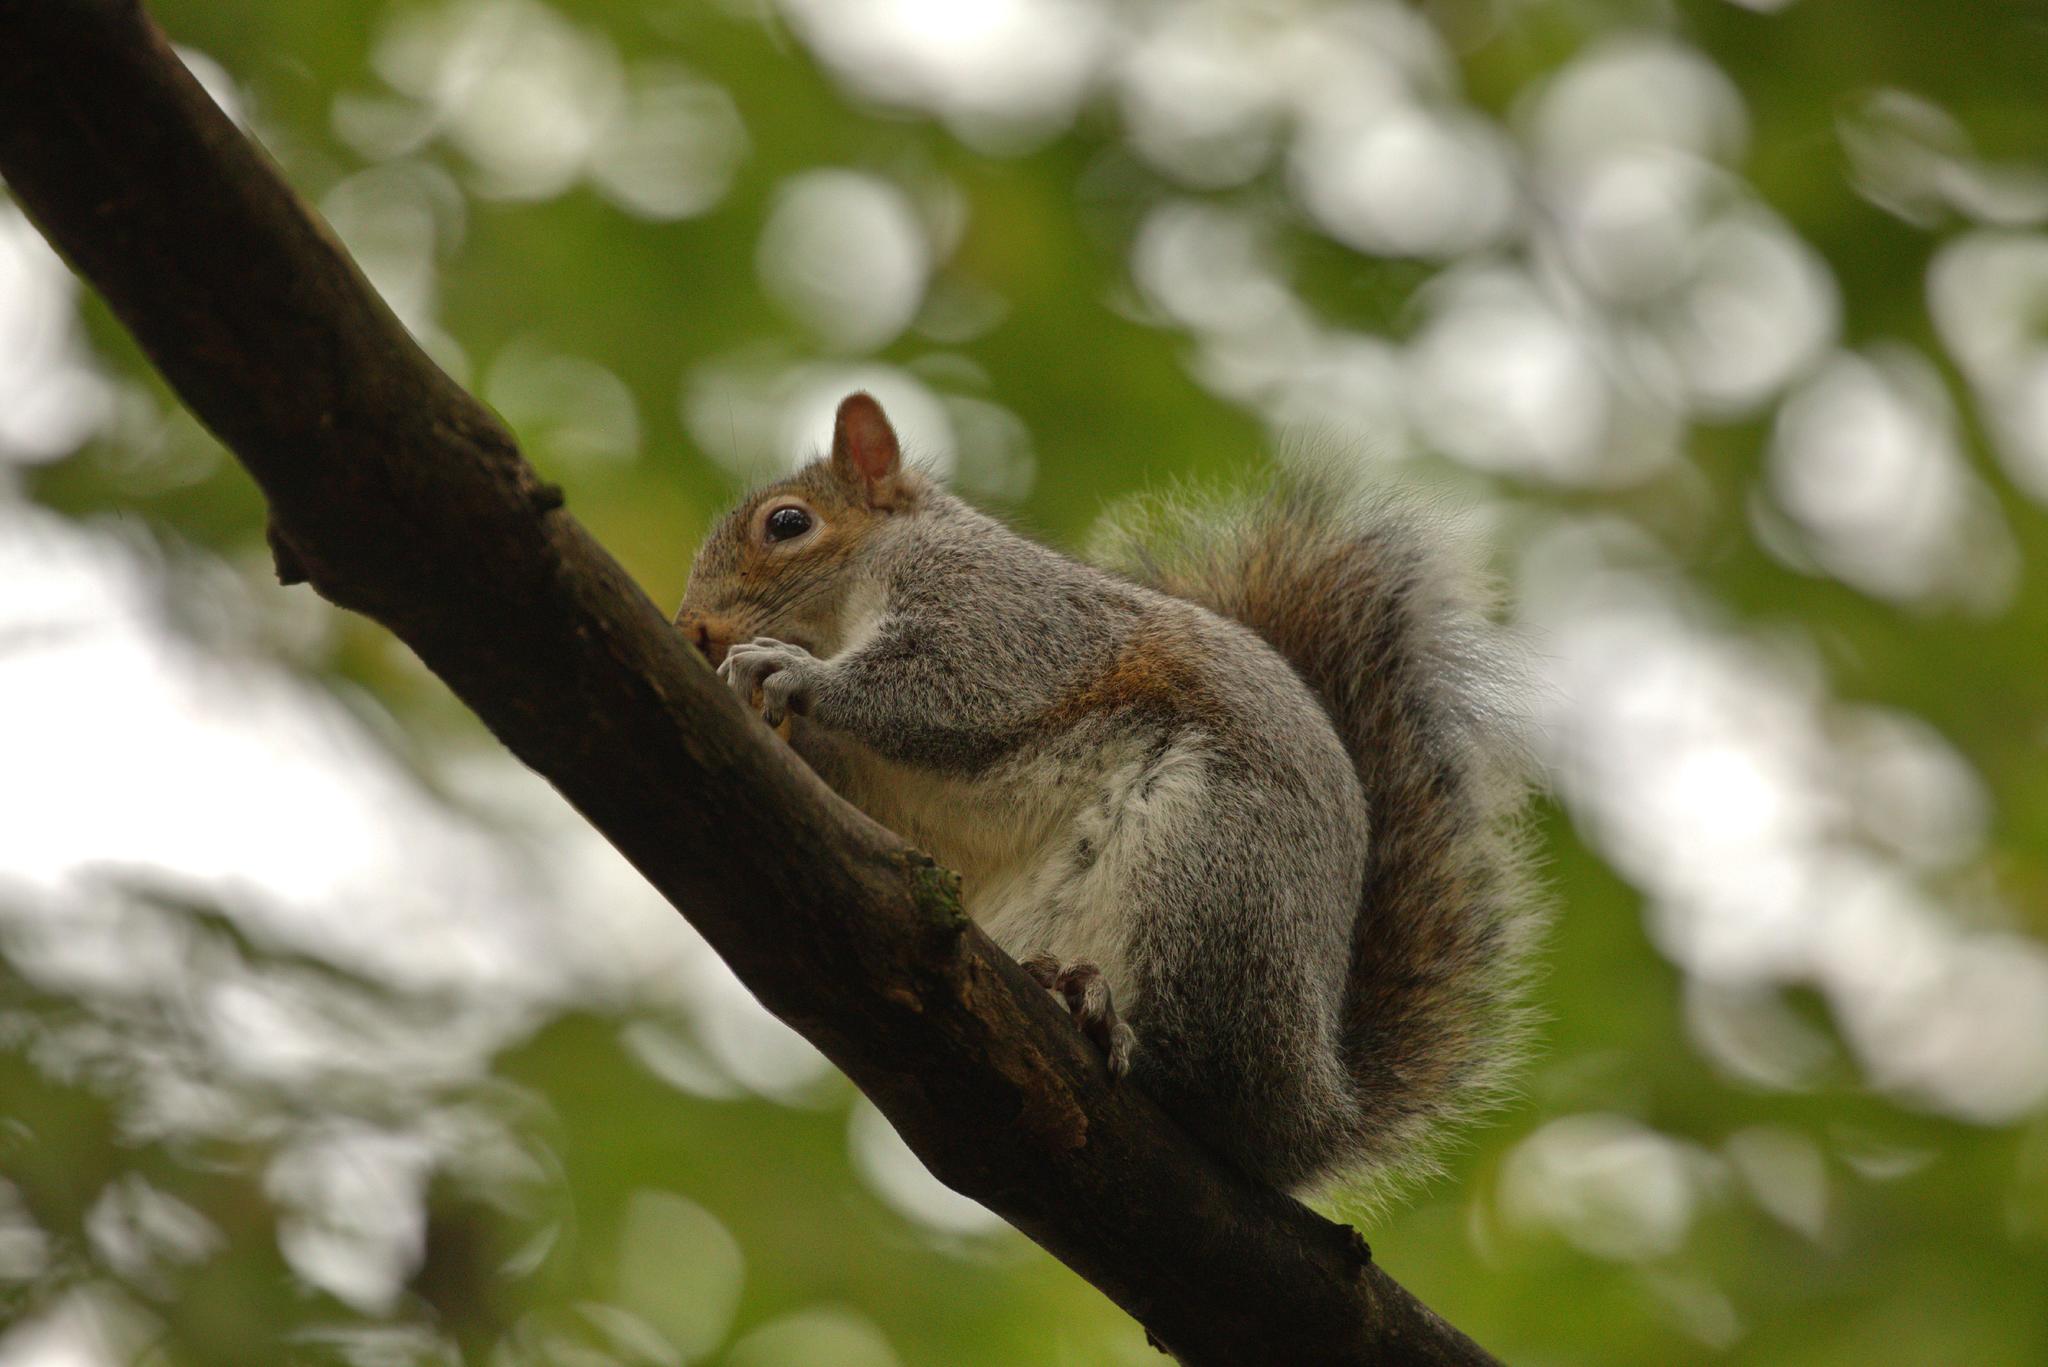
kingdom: Animalia
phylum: Chordata
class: Mammalia
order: Rodentia
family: Sciuridae
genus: Sciurus
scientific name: Sciurus carolinensis
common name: Eastern gray squirrel
